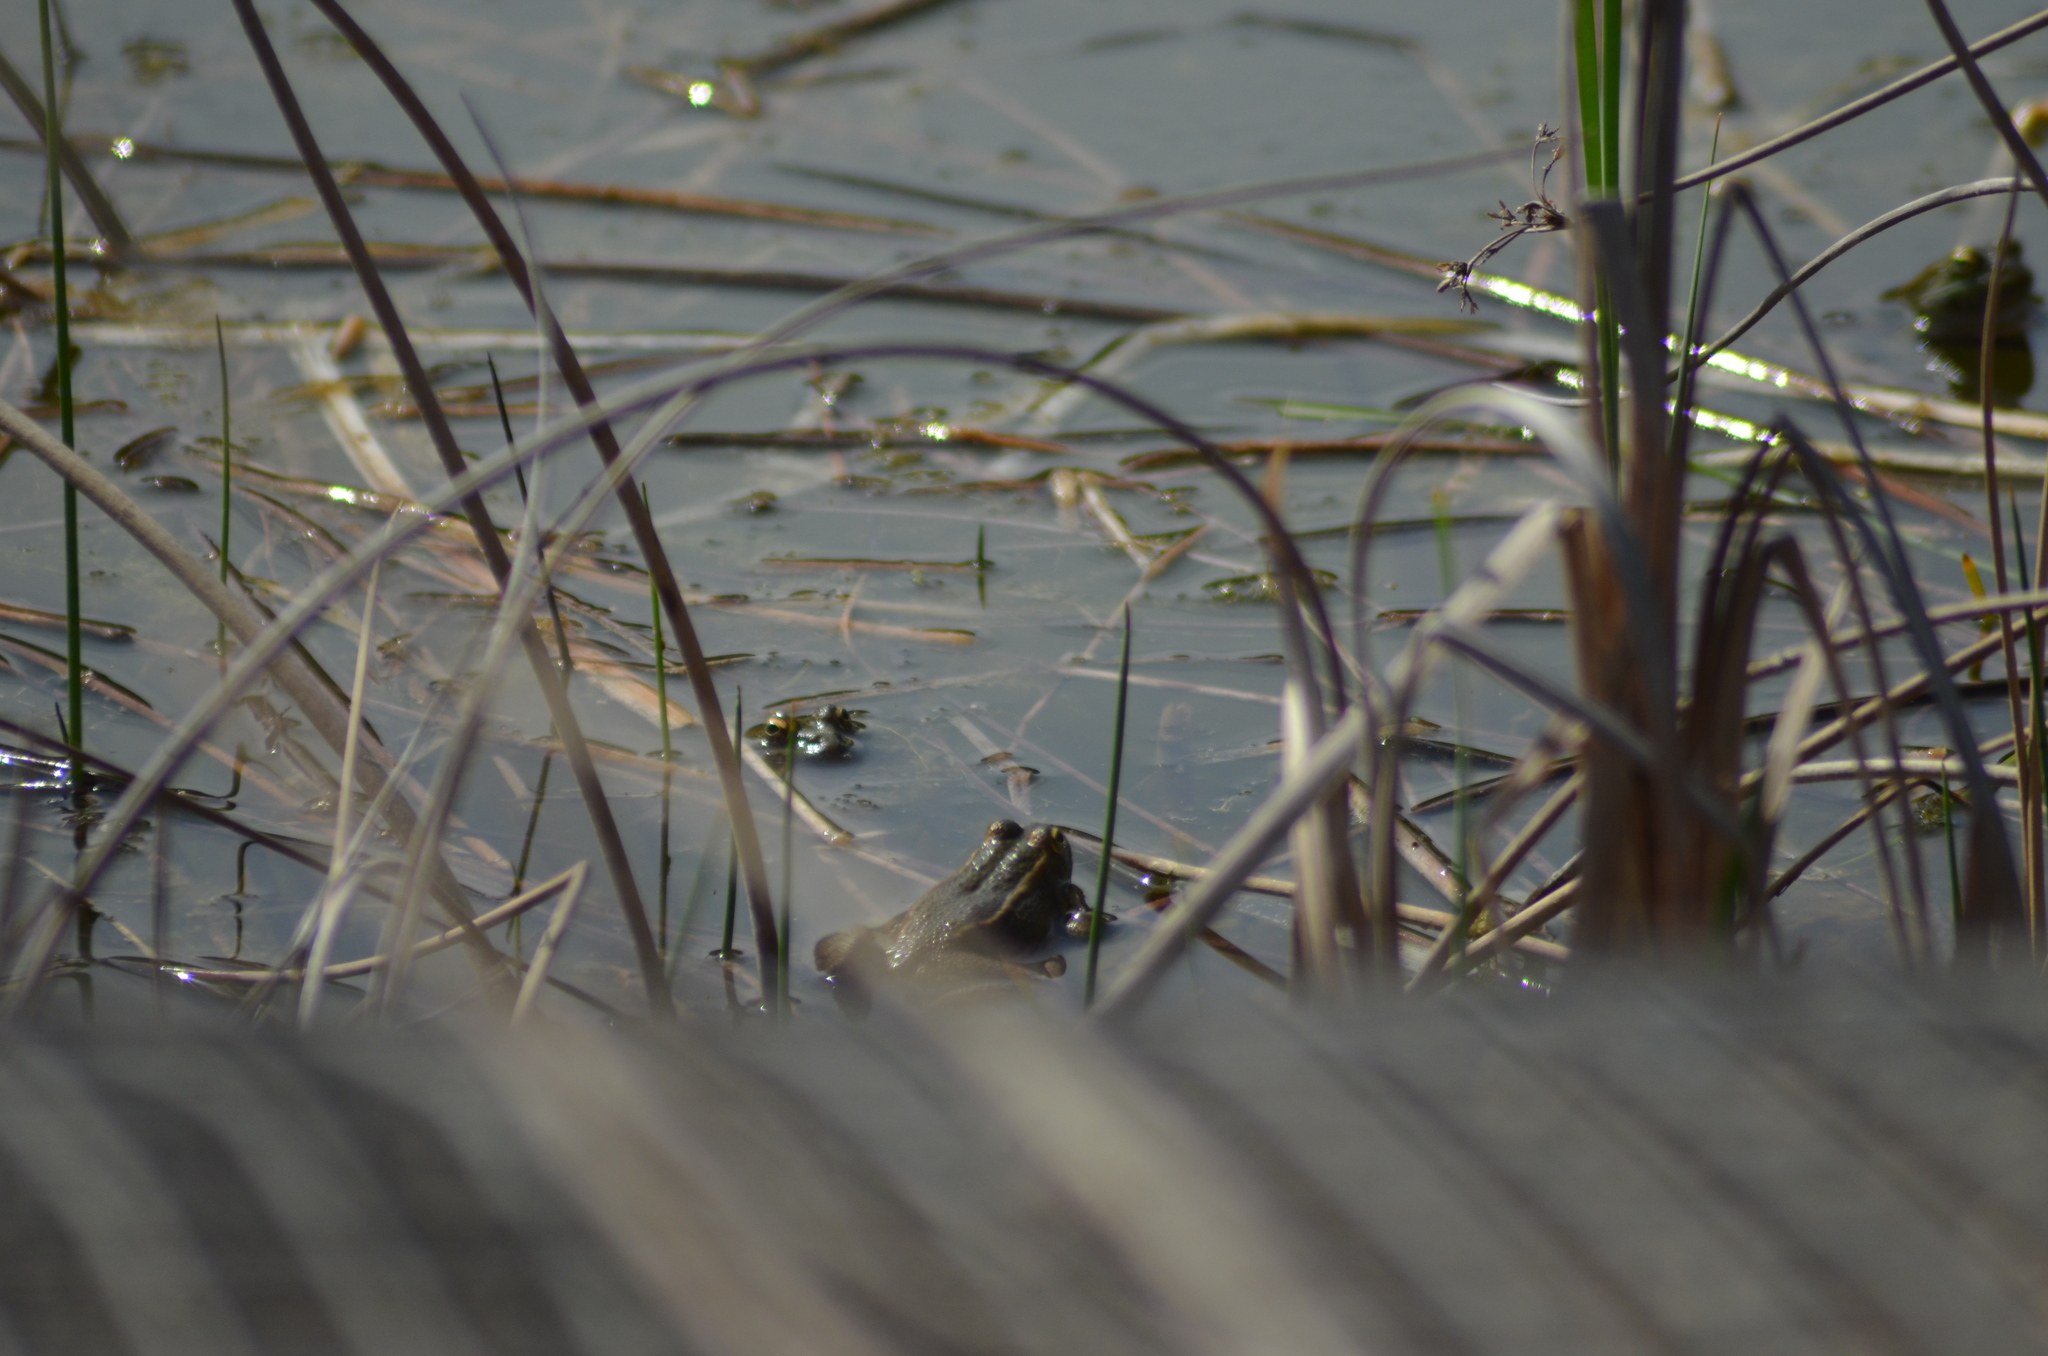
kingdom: Animalia
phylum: Chordata
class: Amphibia
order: Anura
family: Ranidae
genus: Pelophylax
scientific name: Pelophylax
